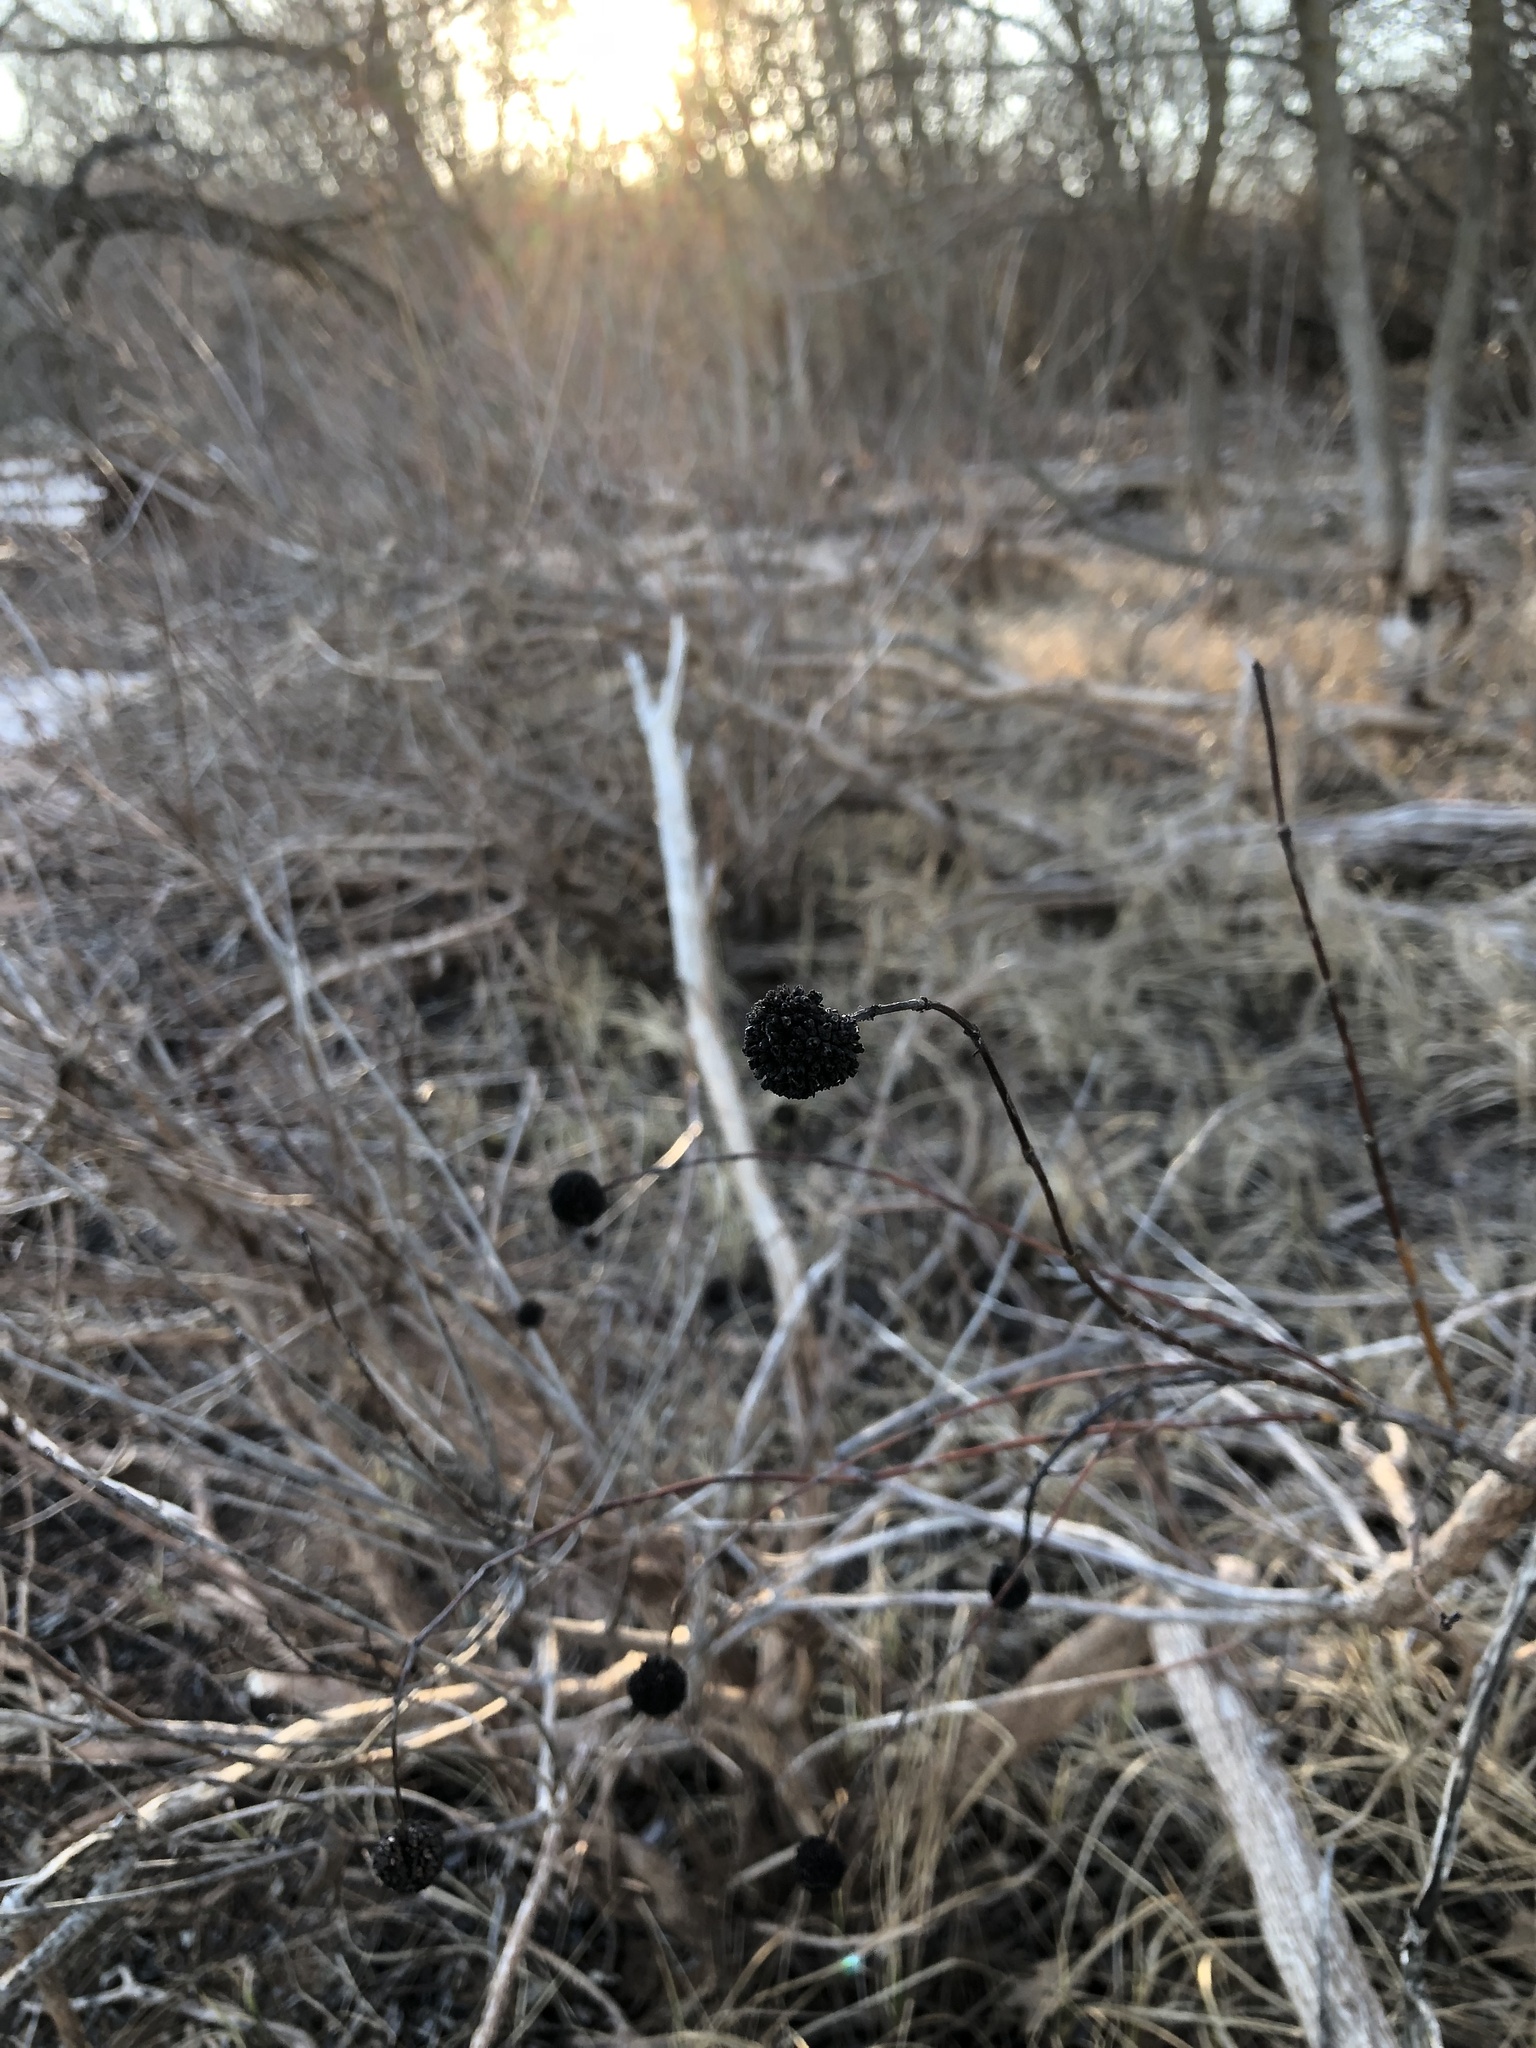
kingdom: Plantae
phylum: Tracheophyta
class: Magnoliopsida
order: Gentianales
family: Rubiaceae
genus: Cephalanthus
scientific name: Cephalanthus occidentalis
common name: Button-willow
